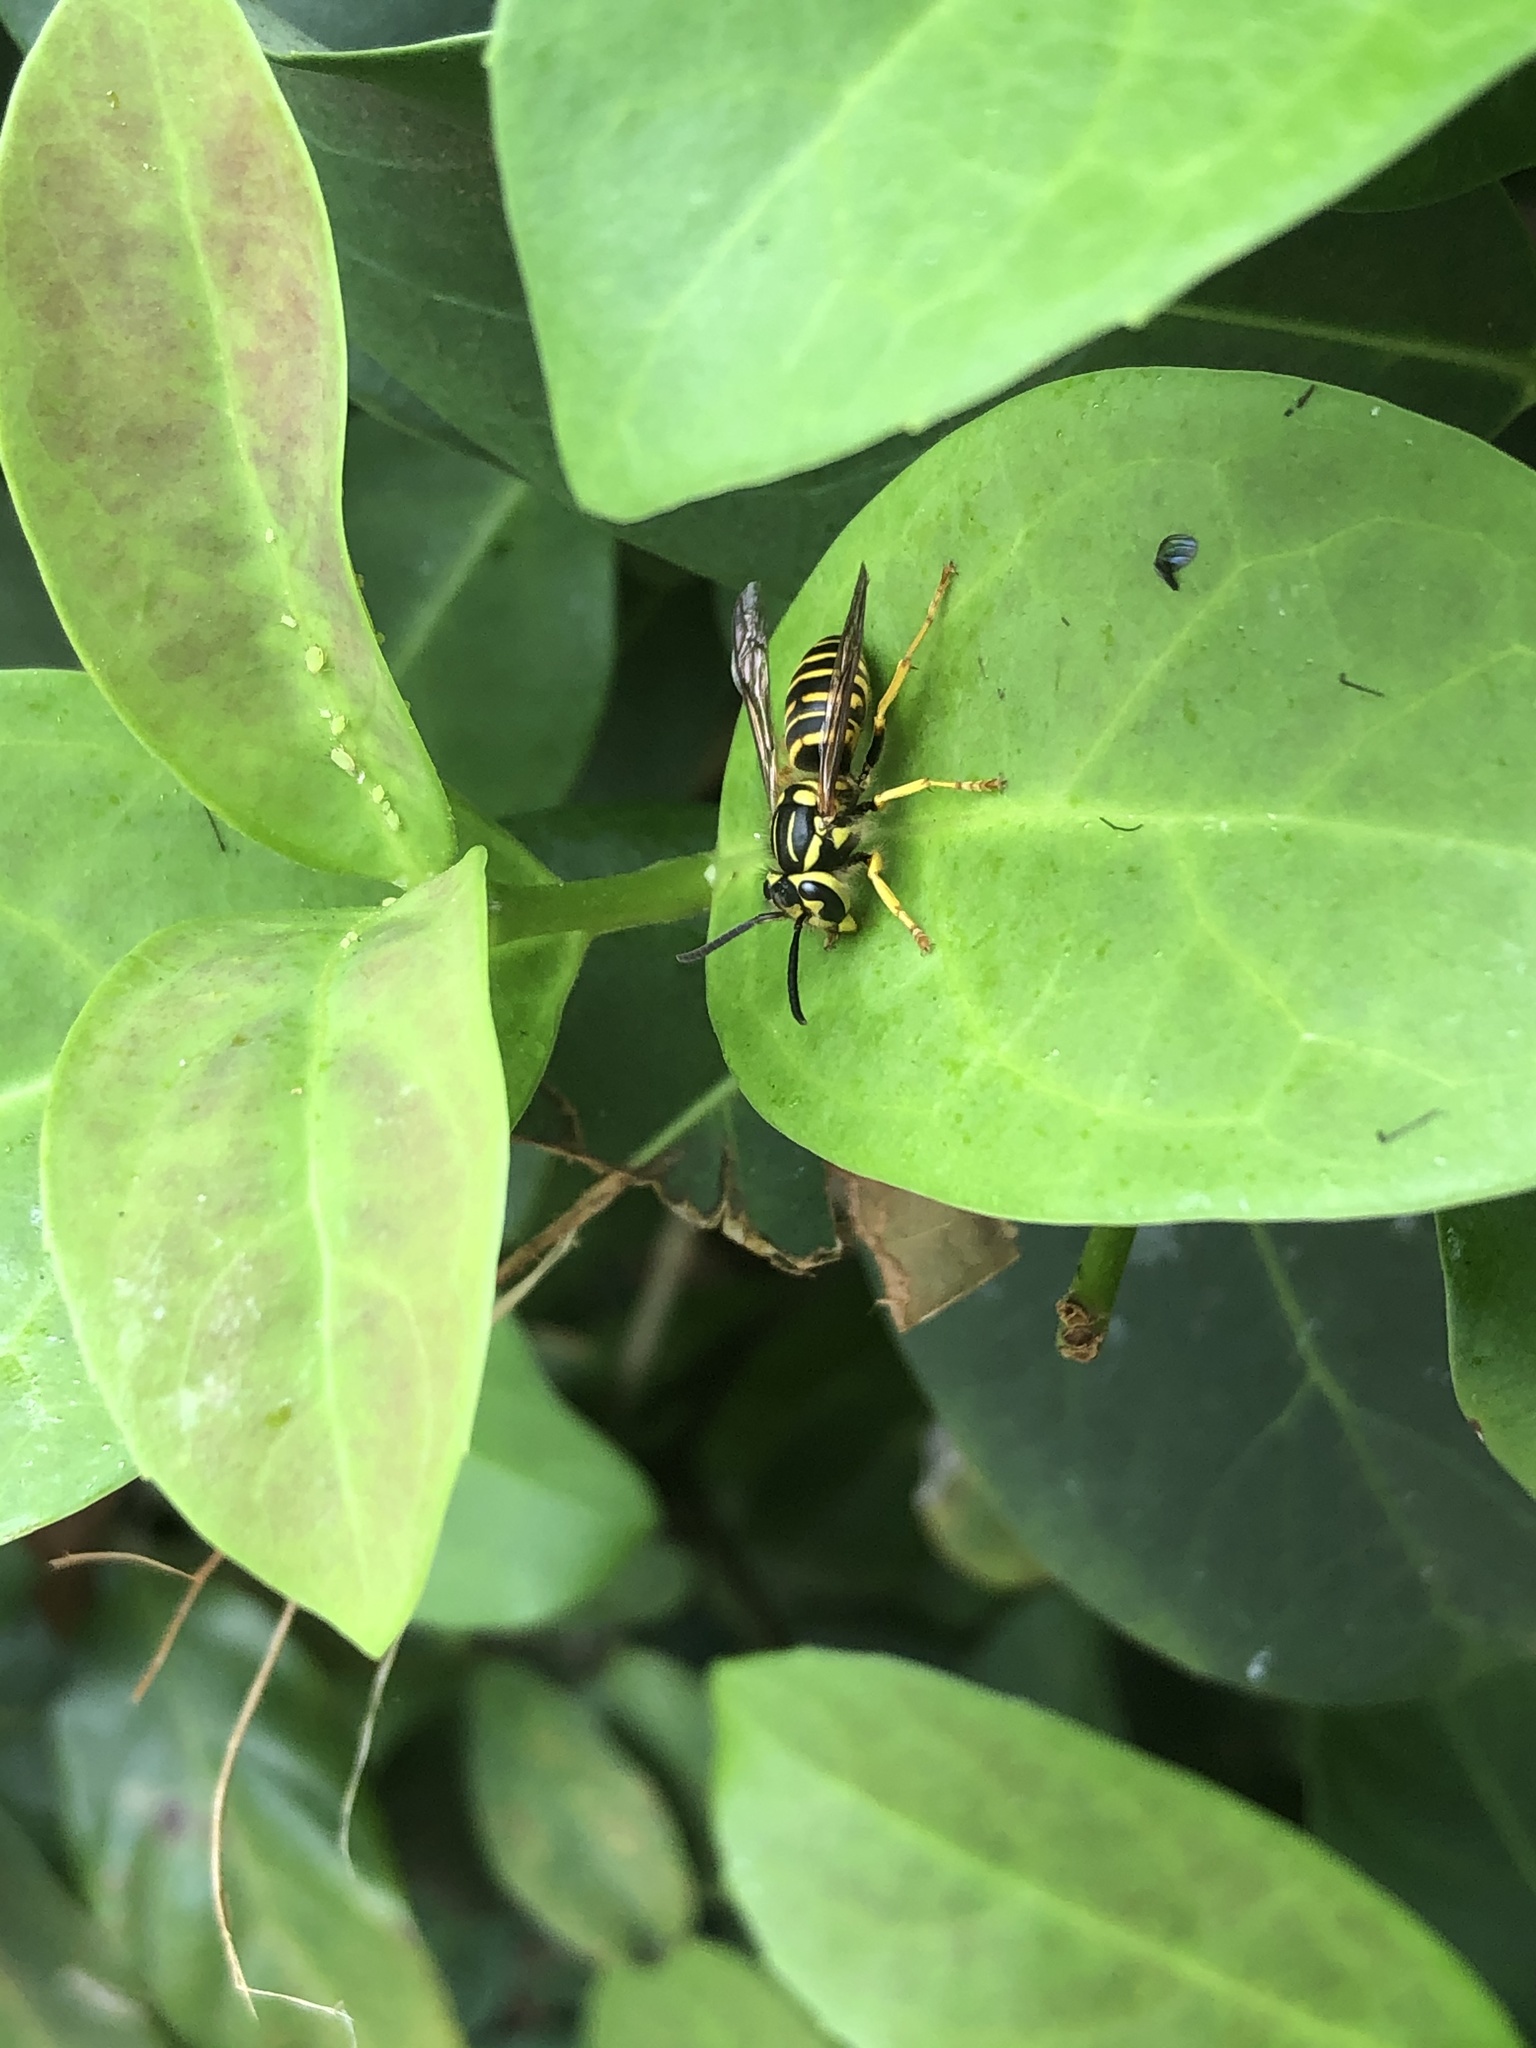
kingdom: Animalia
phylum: Arthropoda
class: Insecta
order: Hymenoptera
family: Vespidae
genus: Vespula
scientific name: Vespula squamosa
